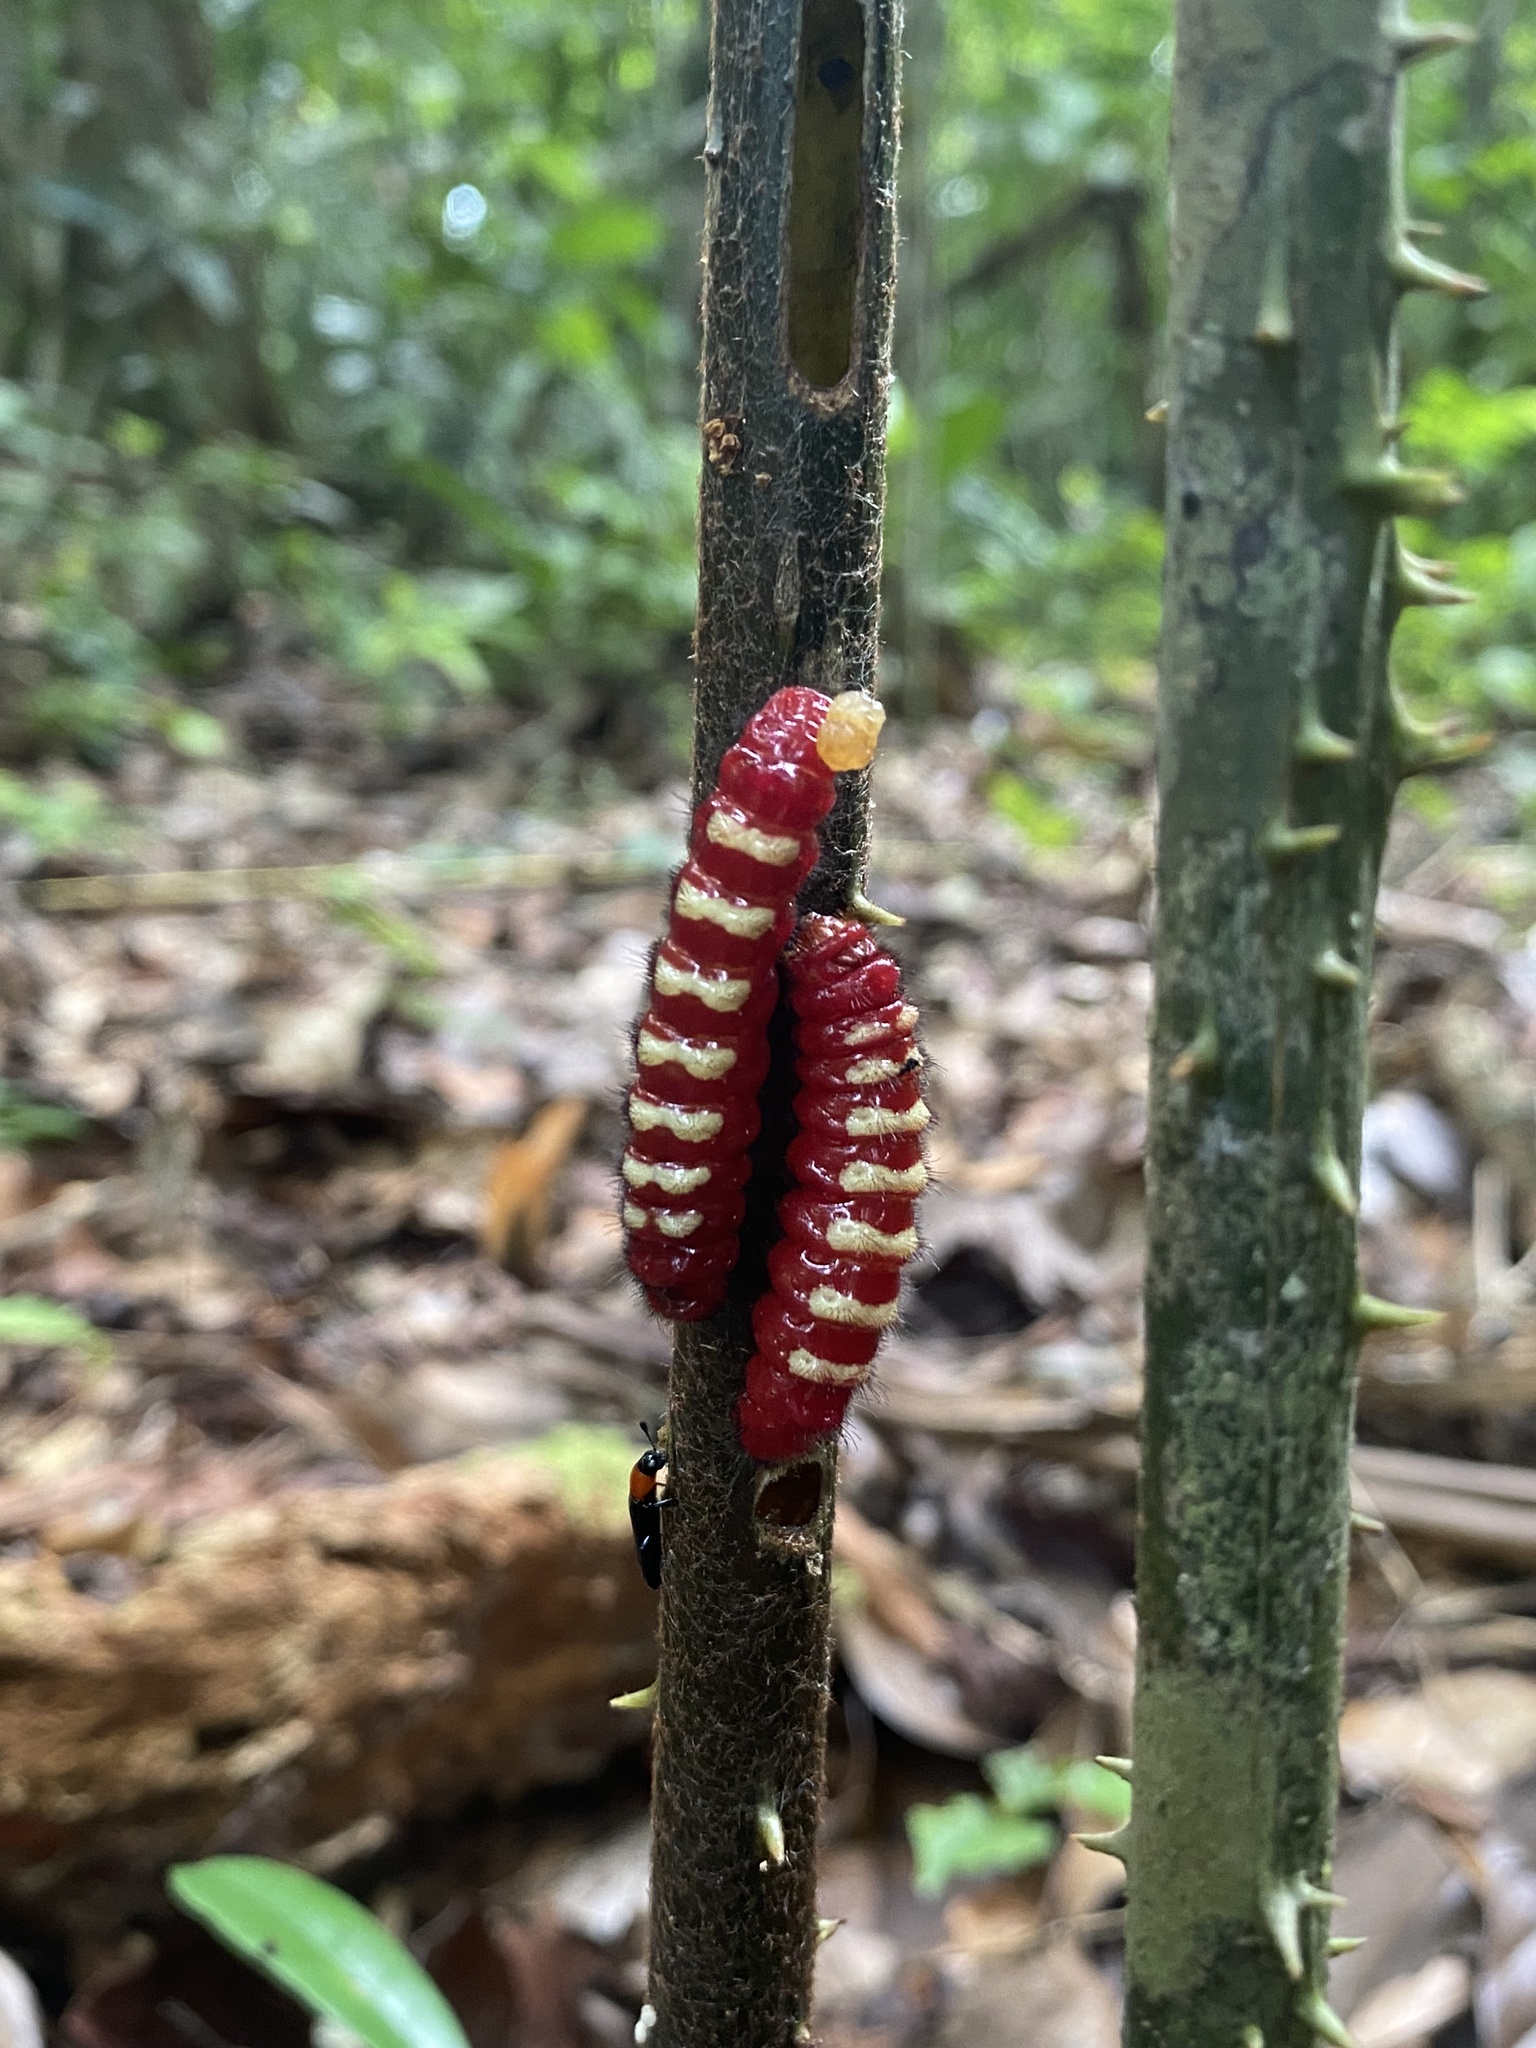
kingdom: Animalia
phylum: Arthropoda
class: Insecta
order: Lepidoptera
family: Lycaenidae
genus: Eumaeus
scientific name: Eumaeus minijas
